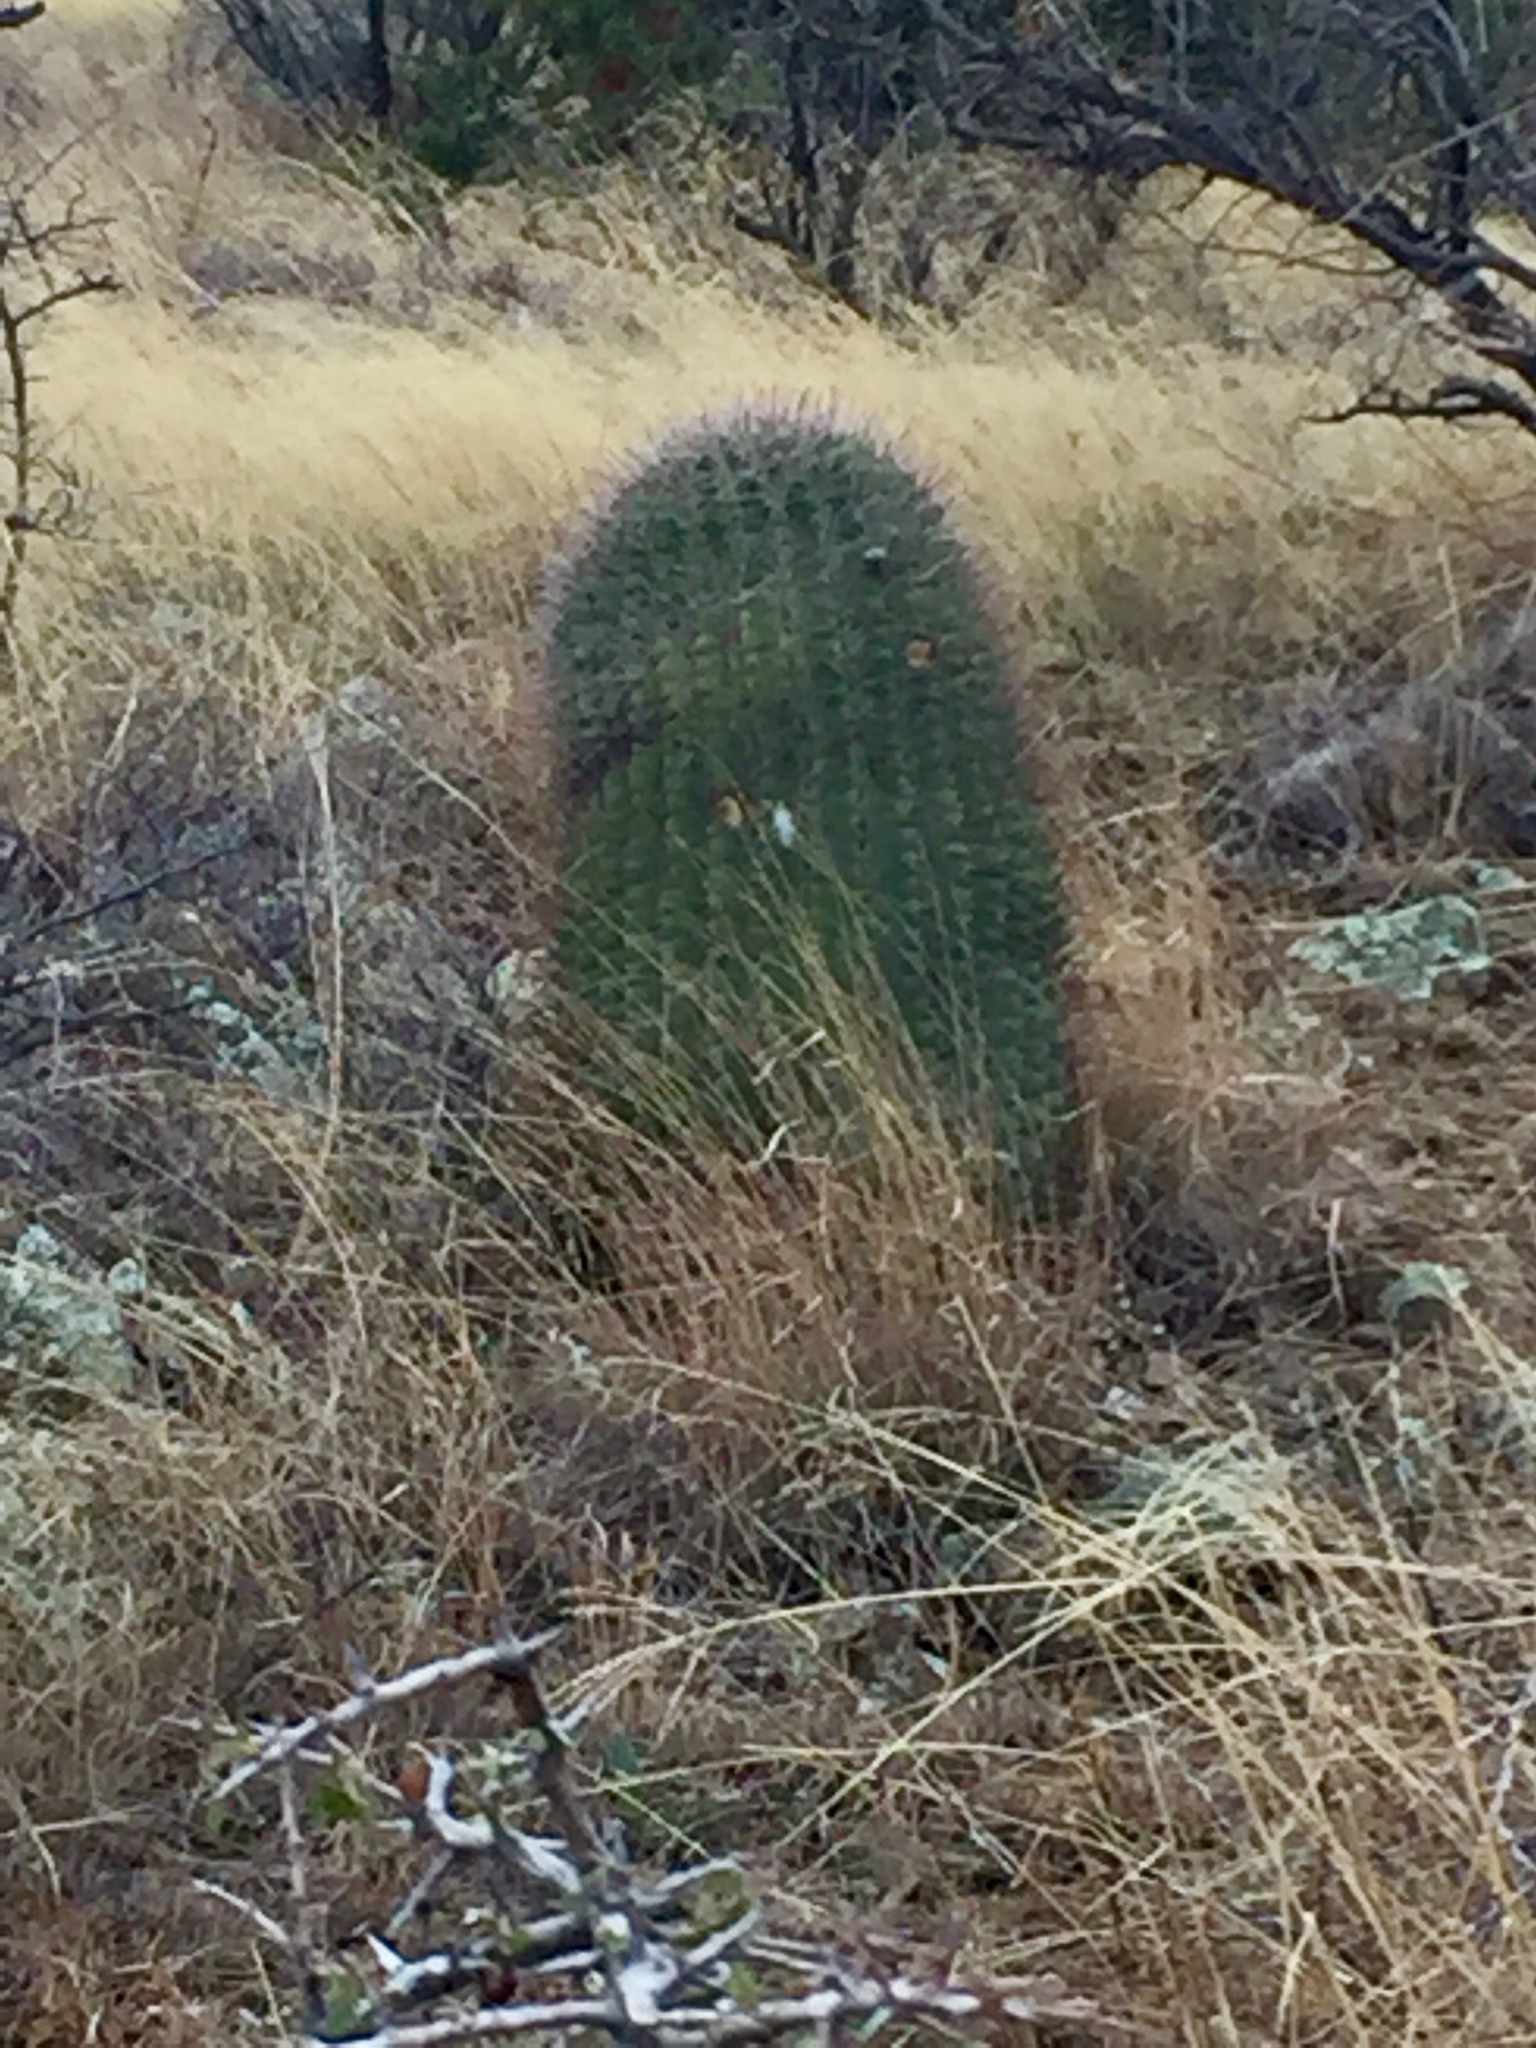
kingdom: Plantae
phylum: Tracheophyta
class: Magnoliopsida
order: Caryophyllales
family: Cactaceae
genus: Ferocactus
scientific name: Ferocactus wislizeni
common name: Candy barrel cactus
